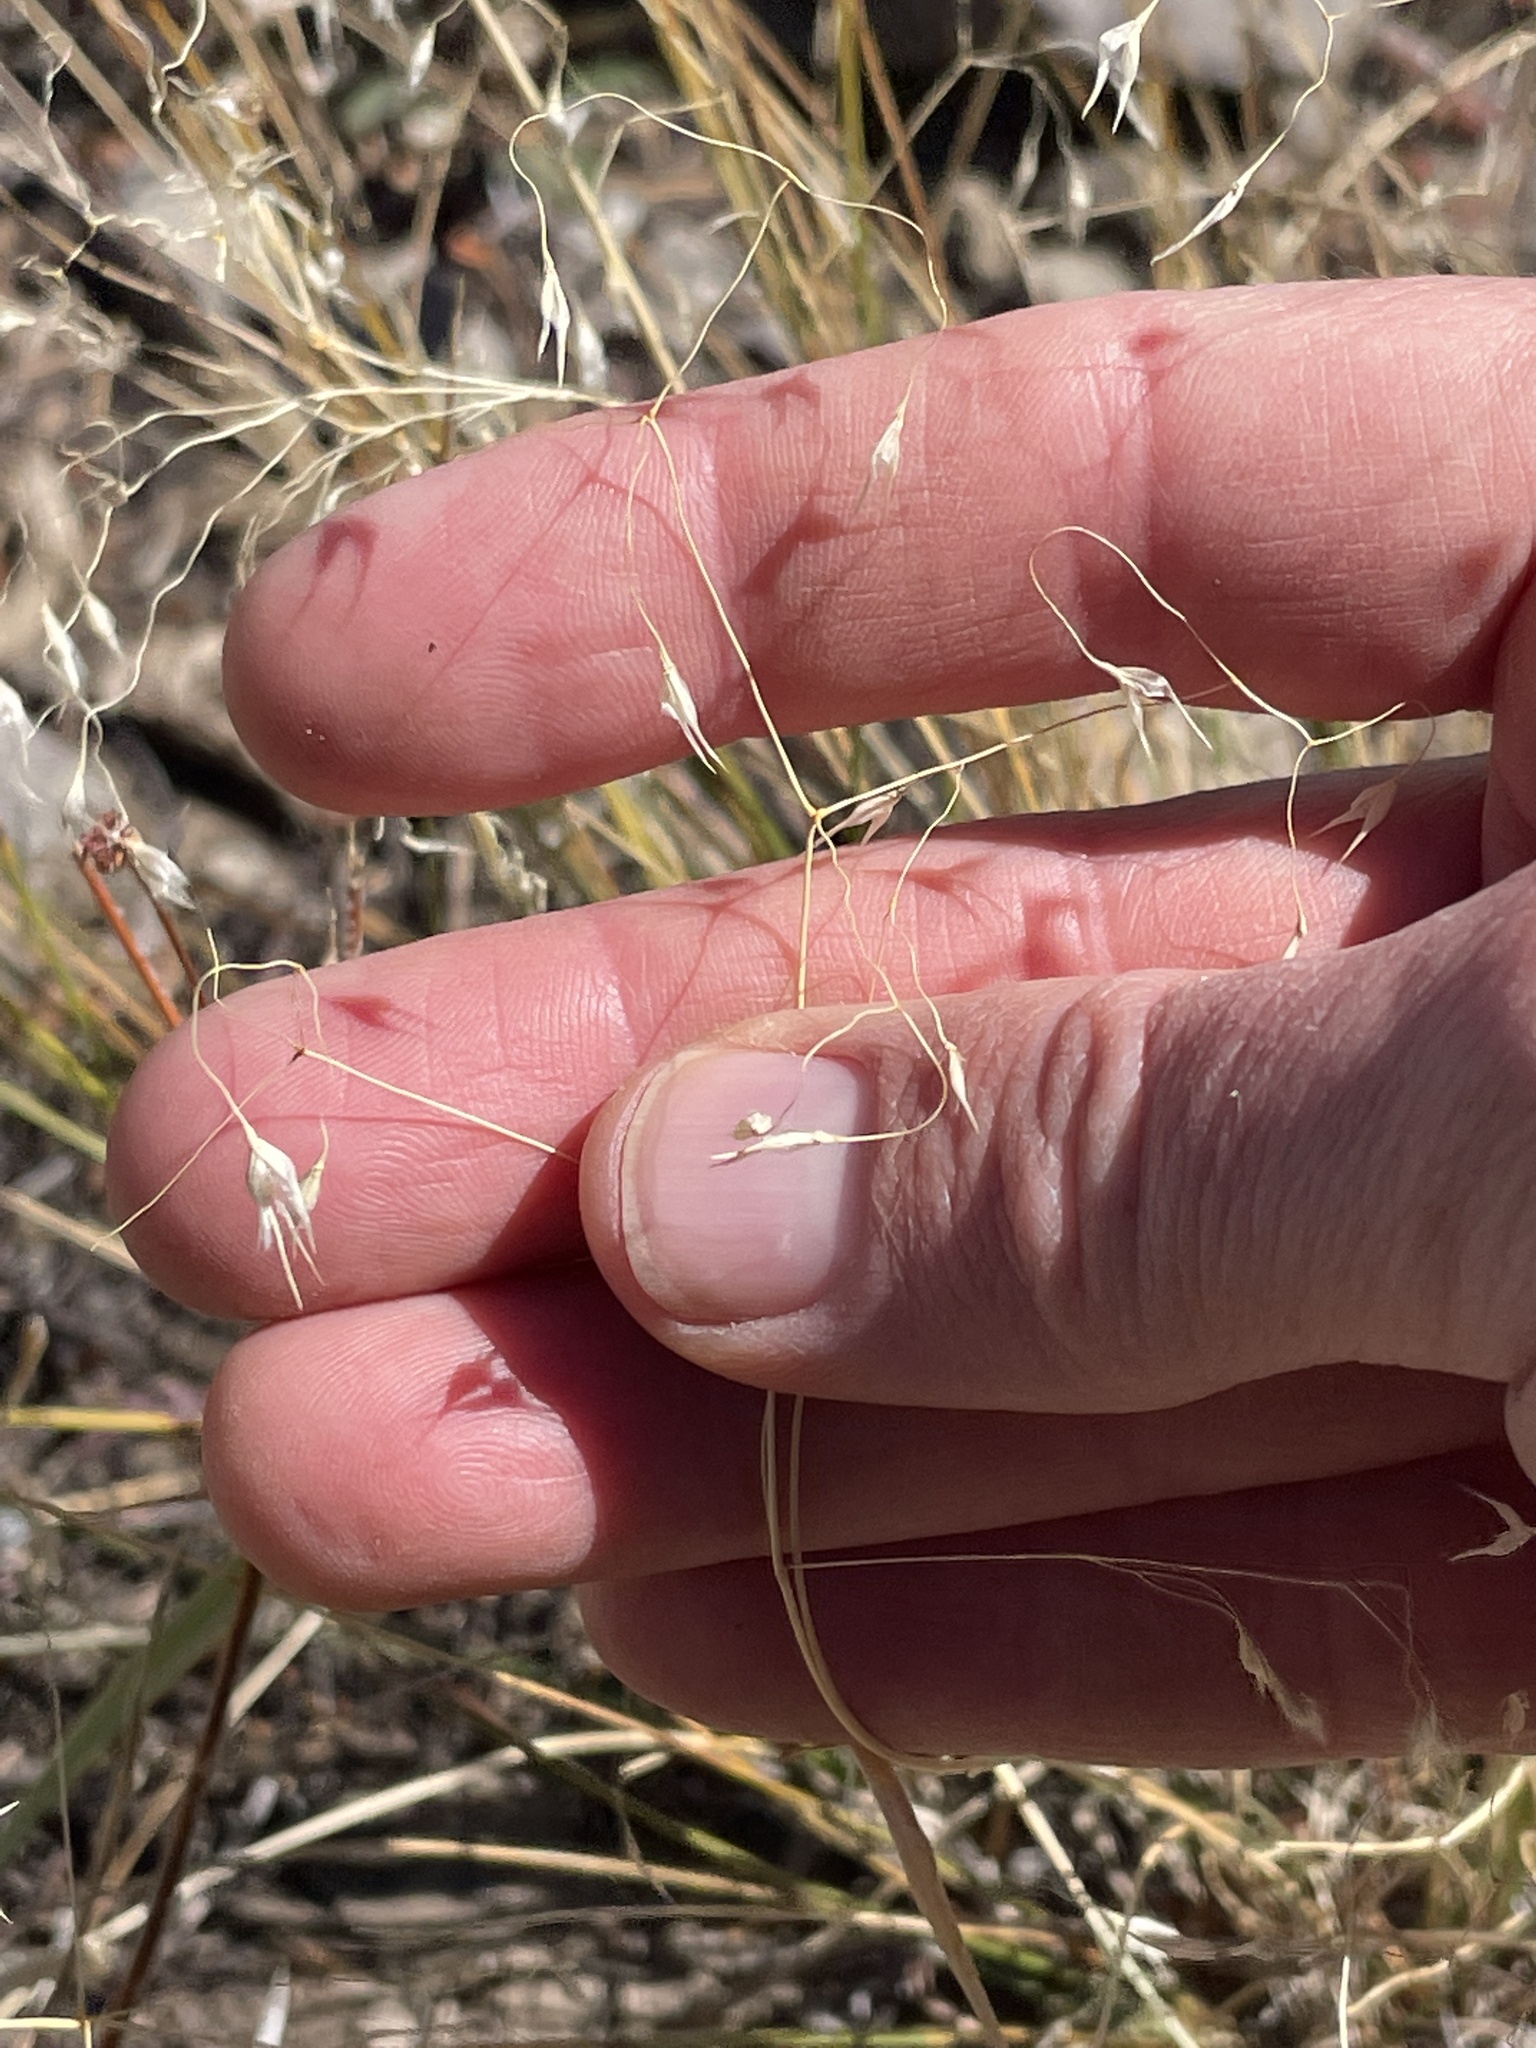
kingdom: Plantae
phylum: Tracheophyta
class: Liliopsida
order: Poales
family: Poaceae
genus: Eriocoma
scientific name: Eriocoma hymenoides
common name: Indian mountain ricegrass
